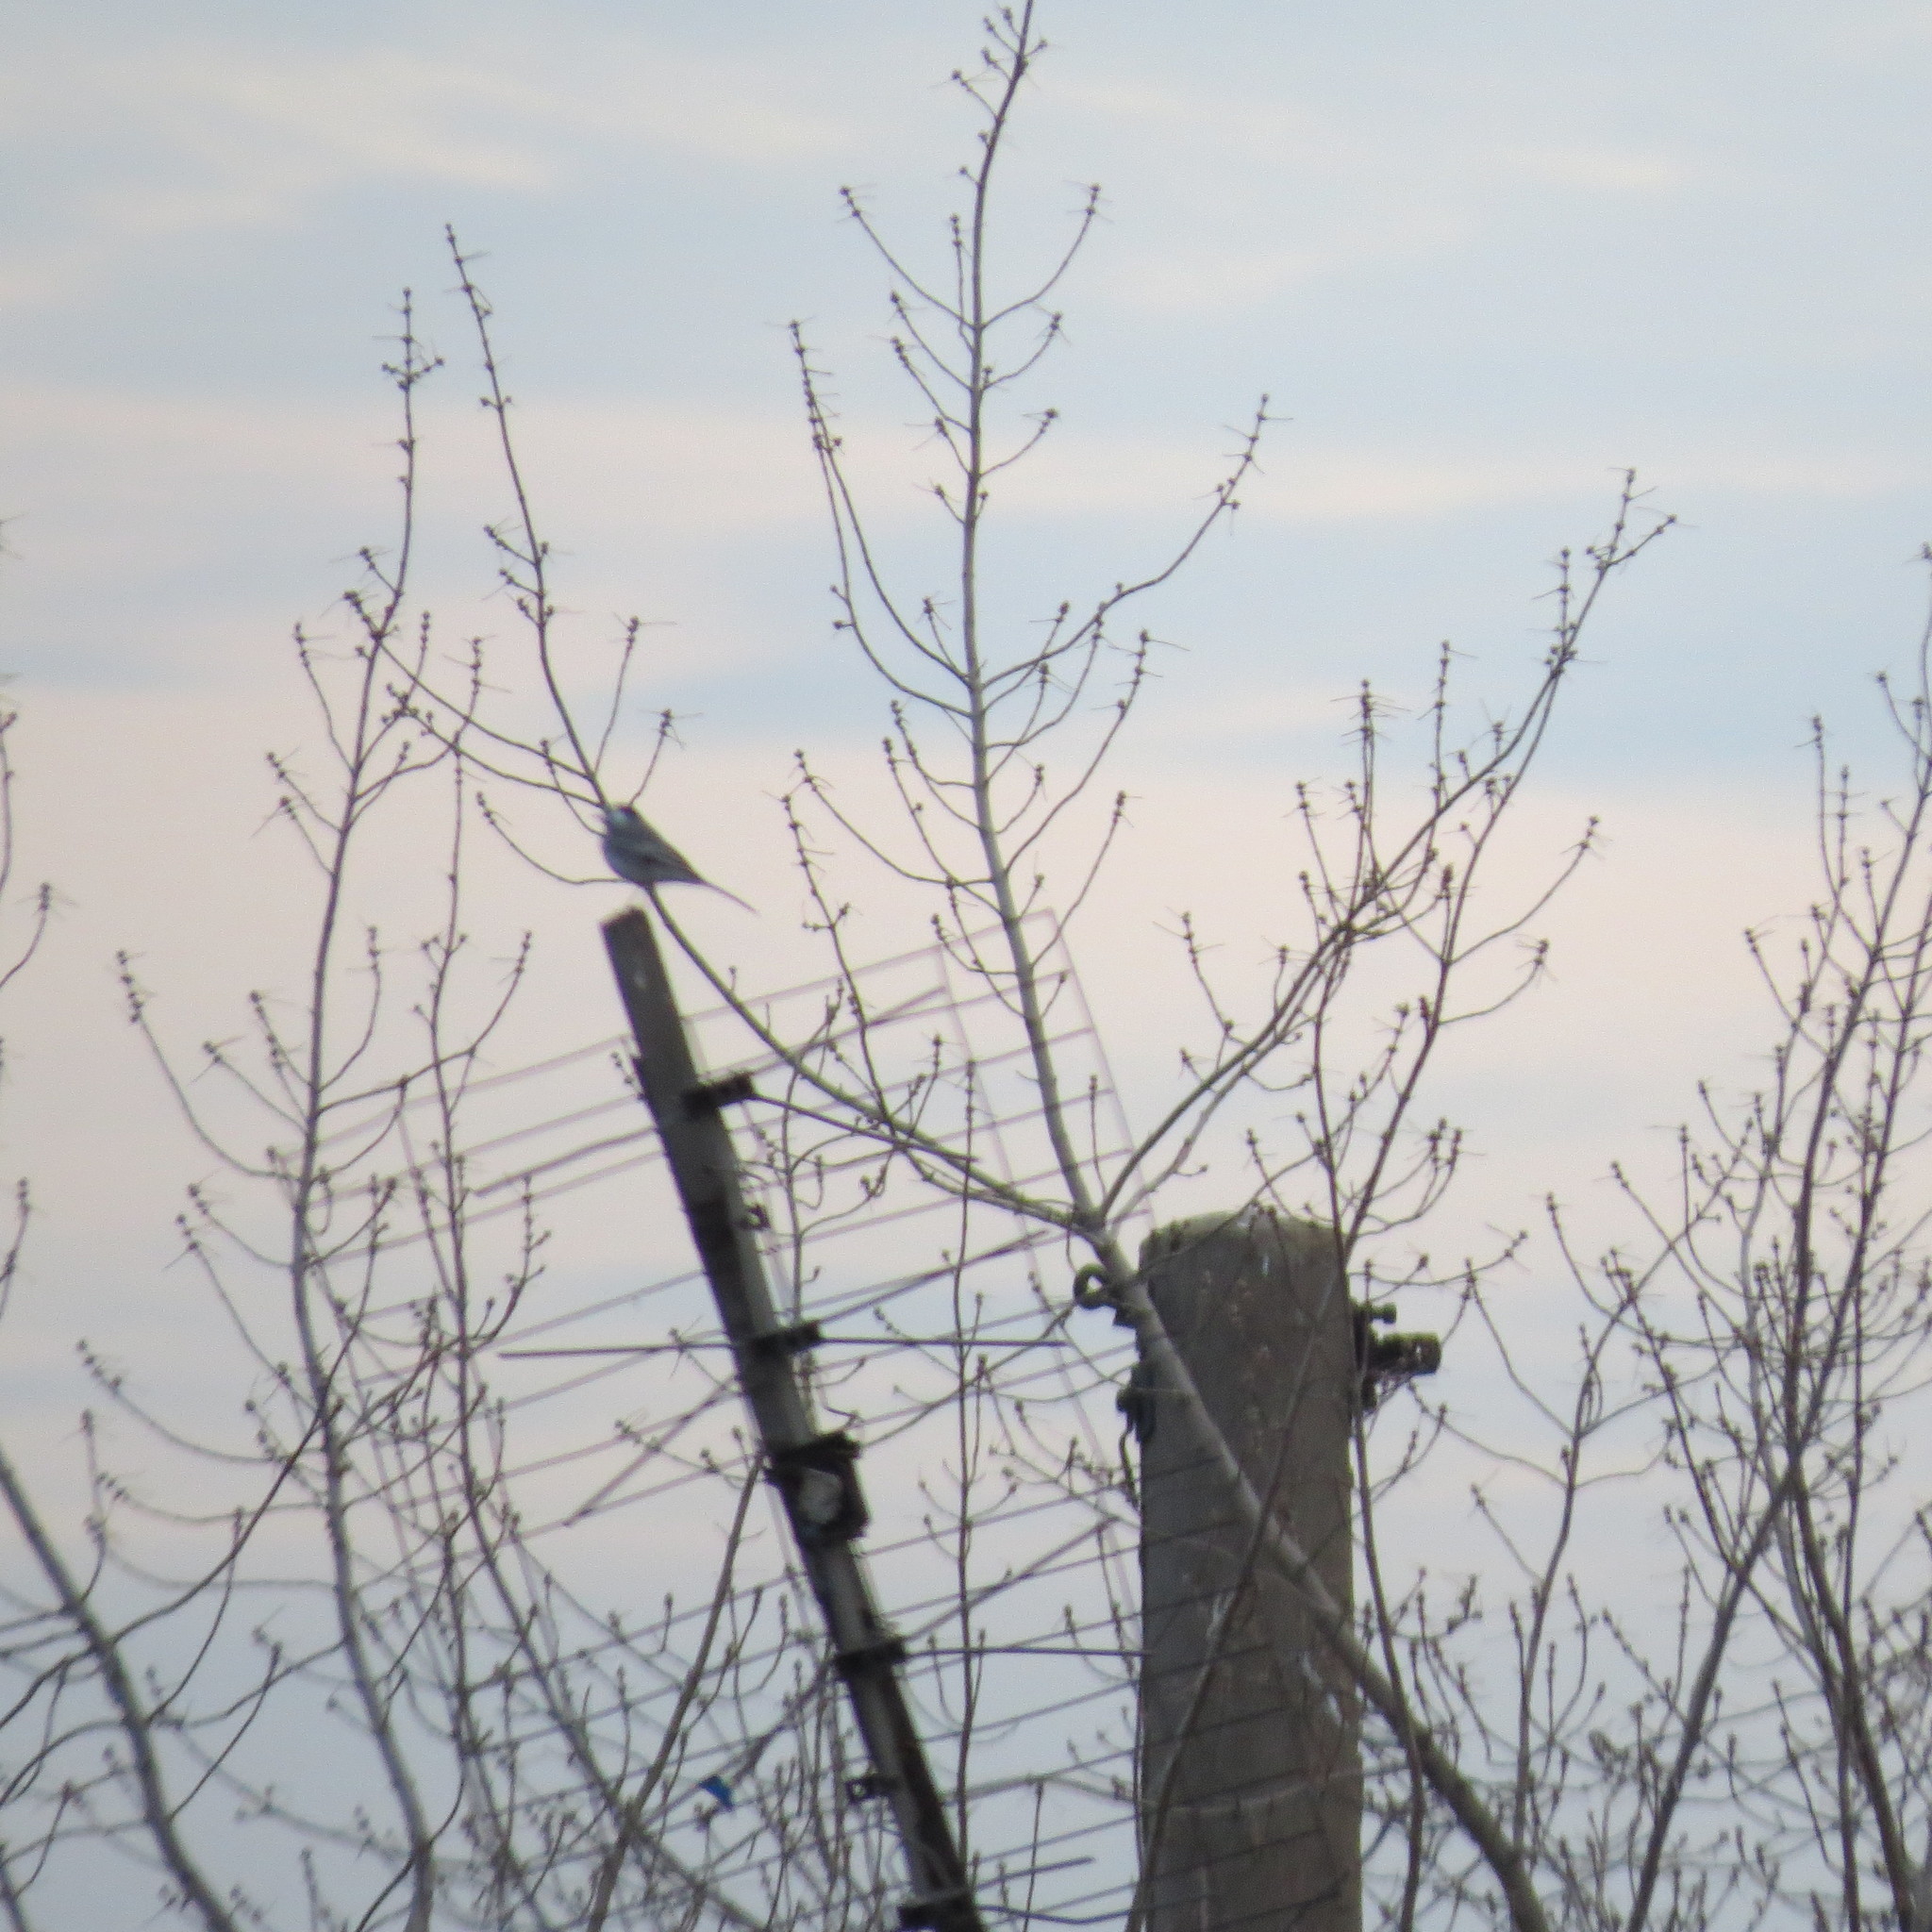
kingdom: Animalia
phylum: Chordata
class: Aves
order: Passeriformes
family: Motacillidae
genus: Motacilla
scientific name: Motacilla alba
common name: White wagtail
